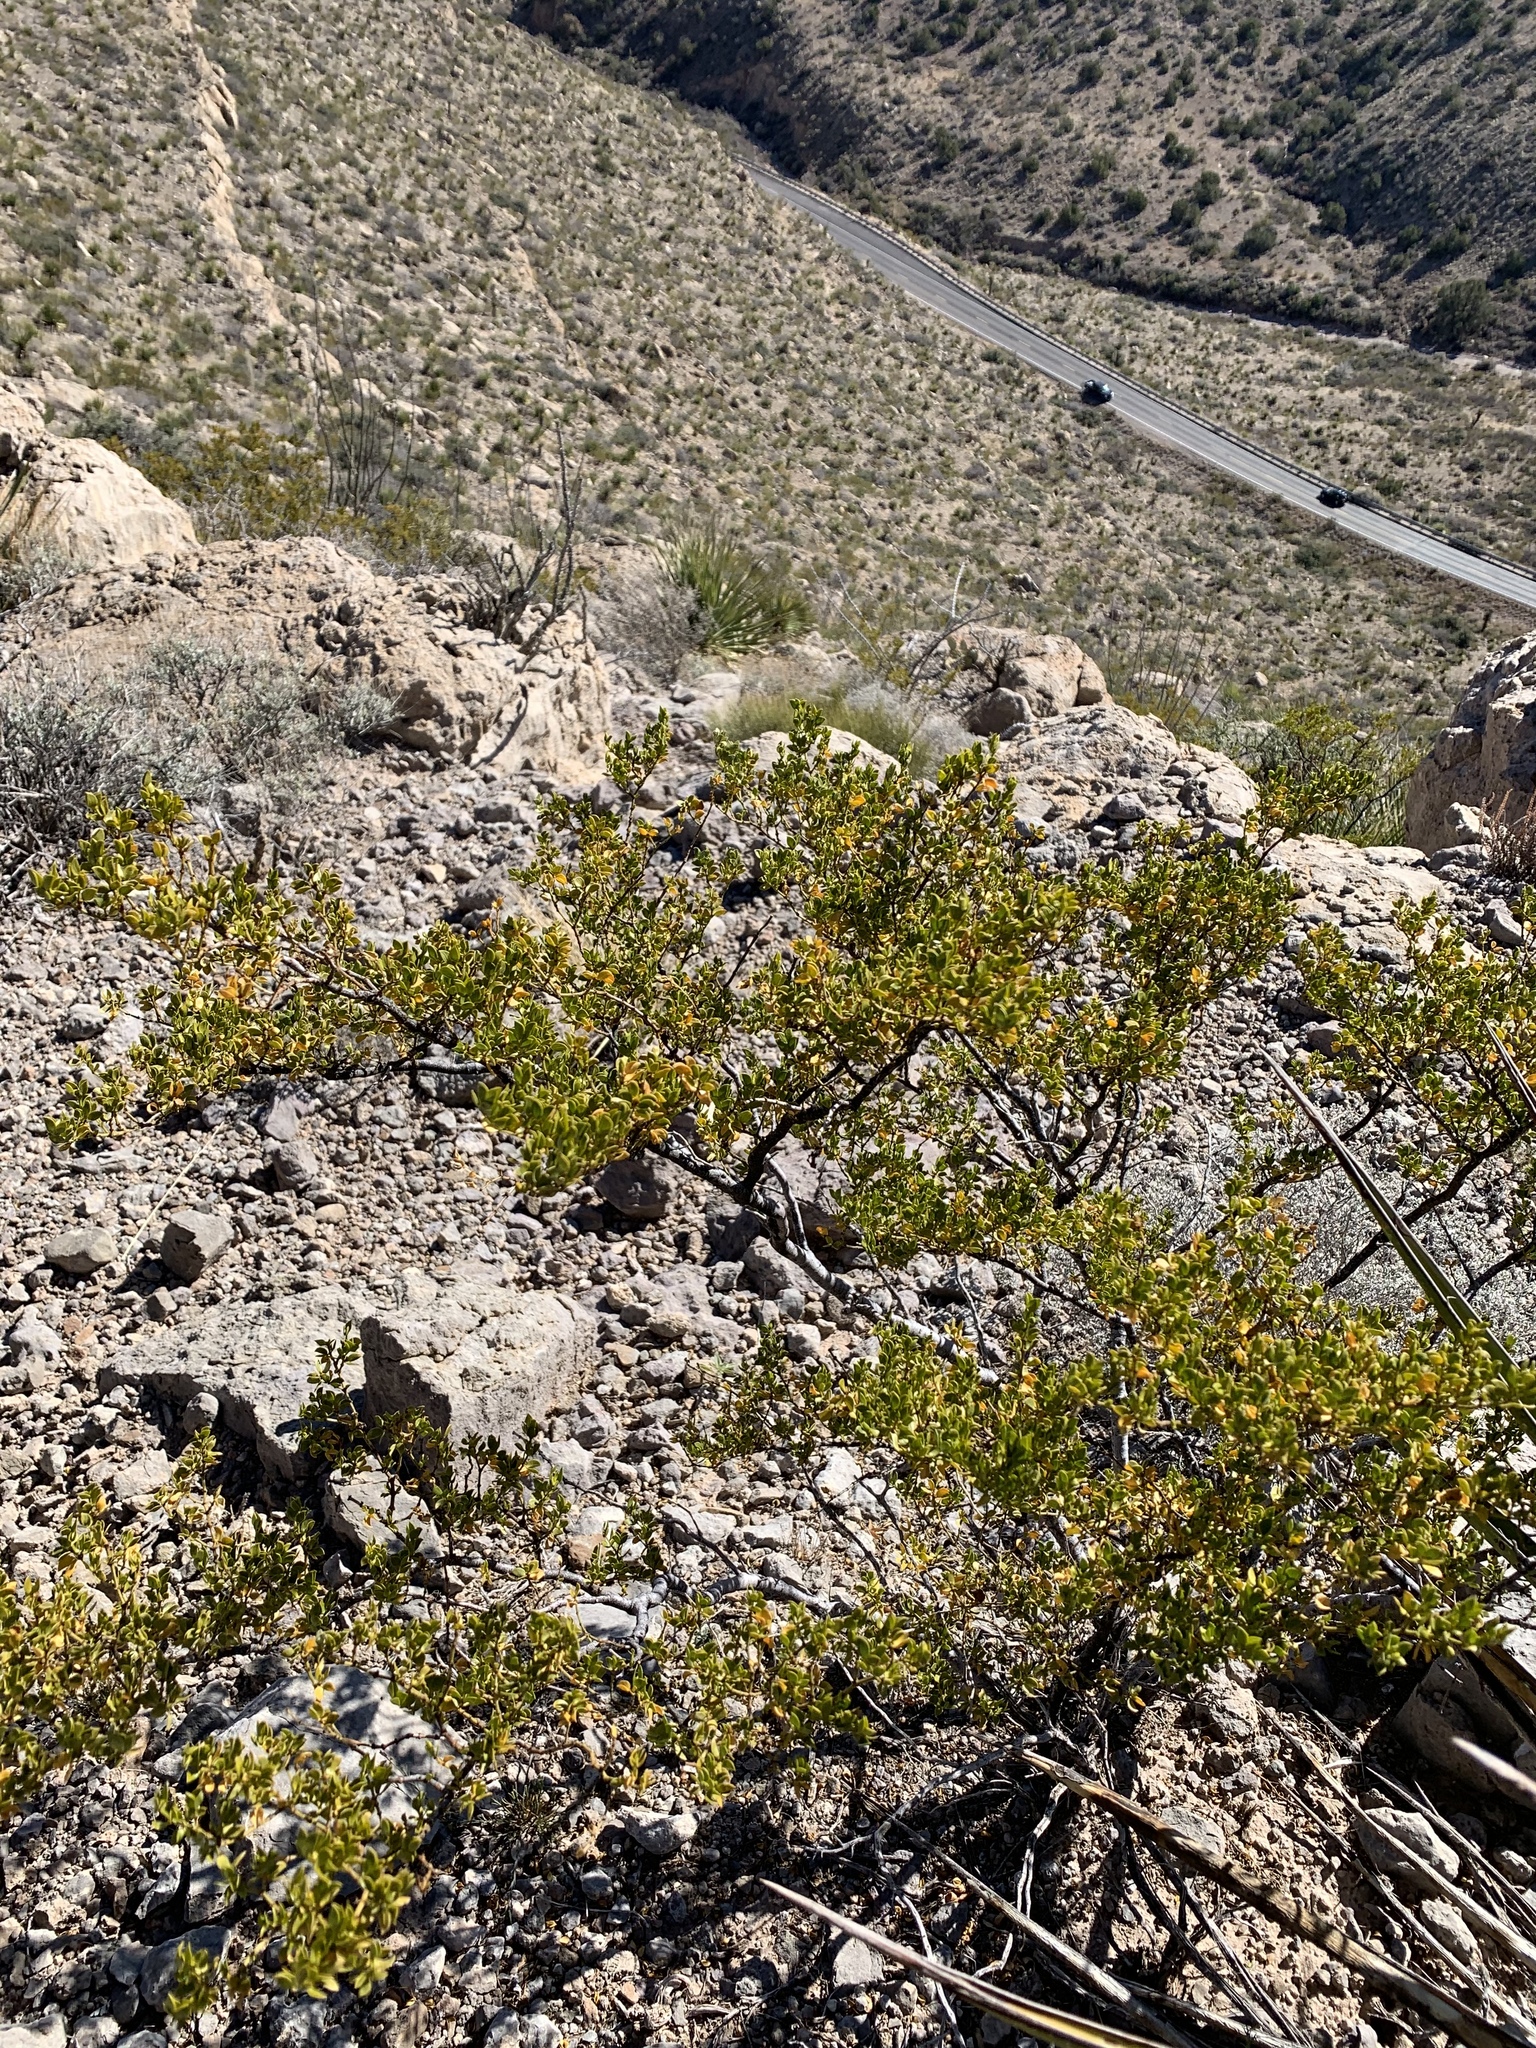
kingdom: Plantae
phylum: Tracheophyta
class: Magnoliopsida
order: Zygophyllales
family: Zygophyllaceae
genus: Larrea
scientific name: Larrea tridentata
